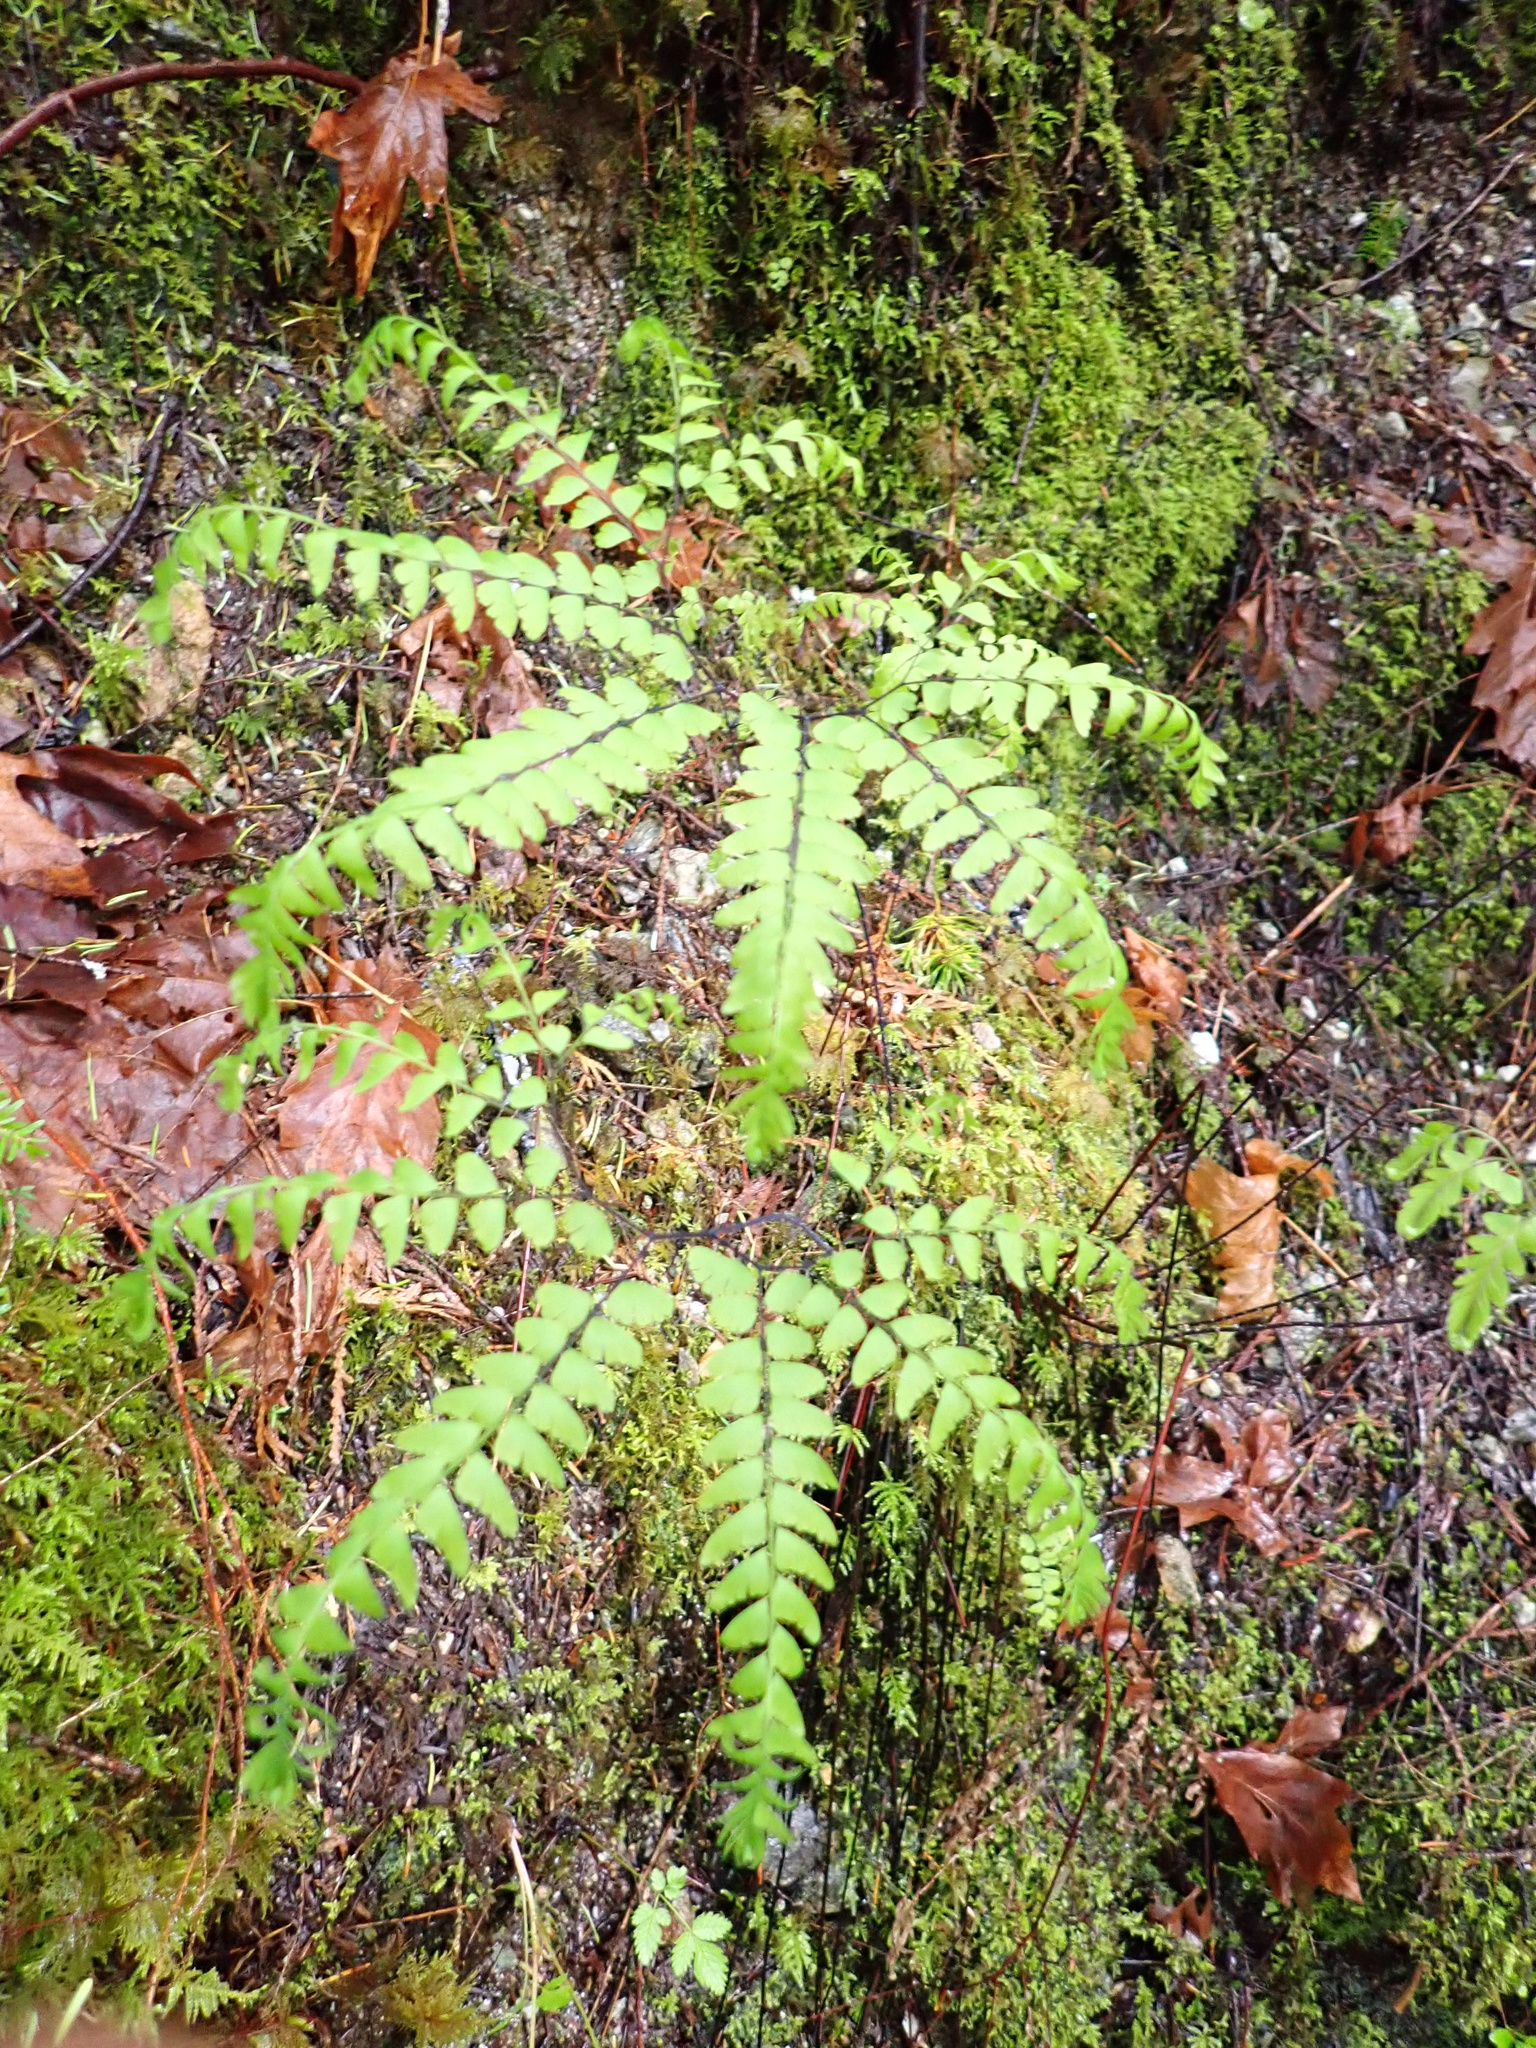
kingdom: Plantae
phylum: Tracheophyta
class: Polypodiopsida
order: Polypodiales
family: Pteridaceae
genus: Adiantum
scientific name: Adiantum aleuticum
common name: Aleutian maidenhair fern
